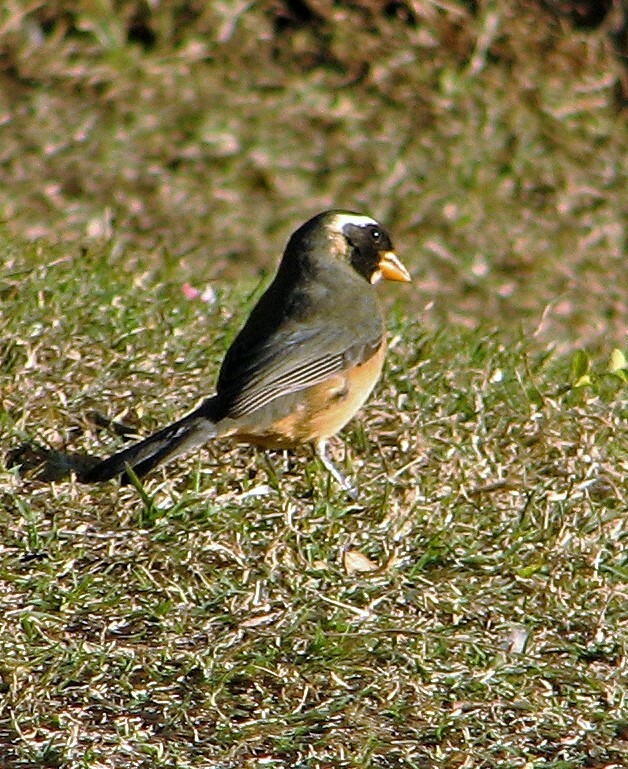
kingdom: Animalia
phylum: Chordata
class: Aves
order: Passeriformes
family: Thraupidae
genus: Saltator
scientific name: Saltator aurantiirostris
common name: Golden-billed saltator
